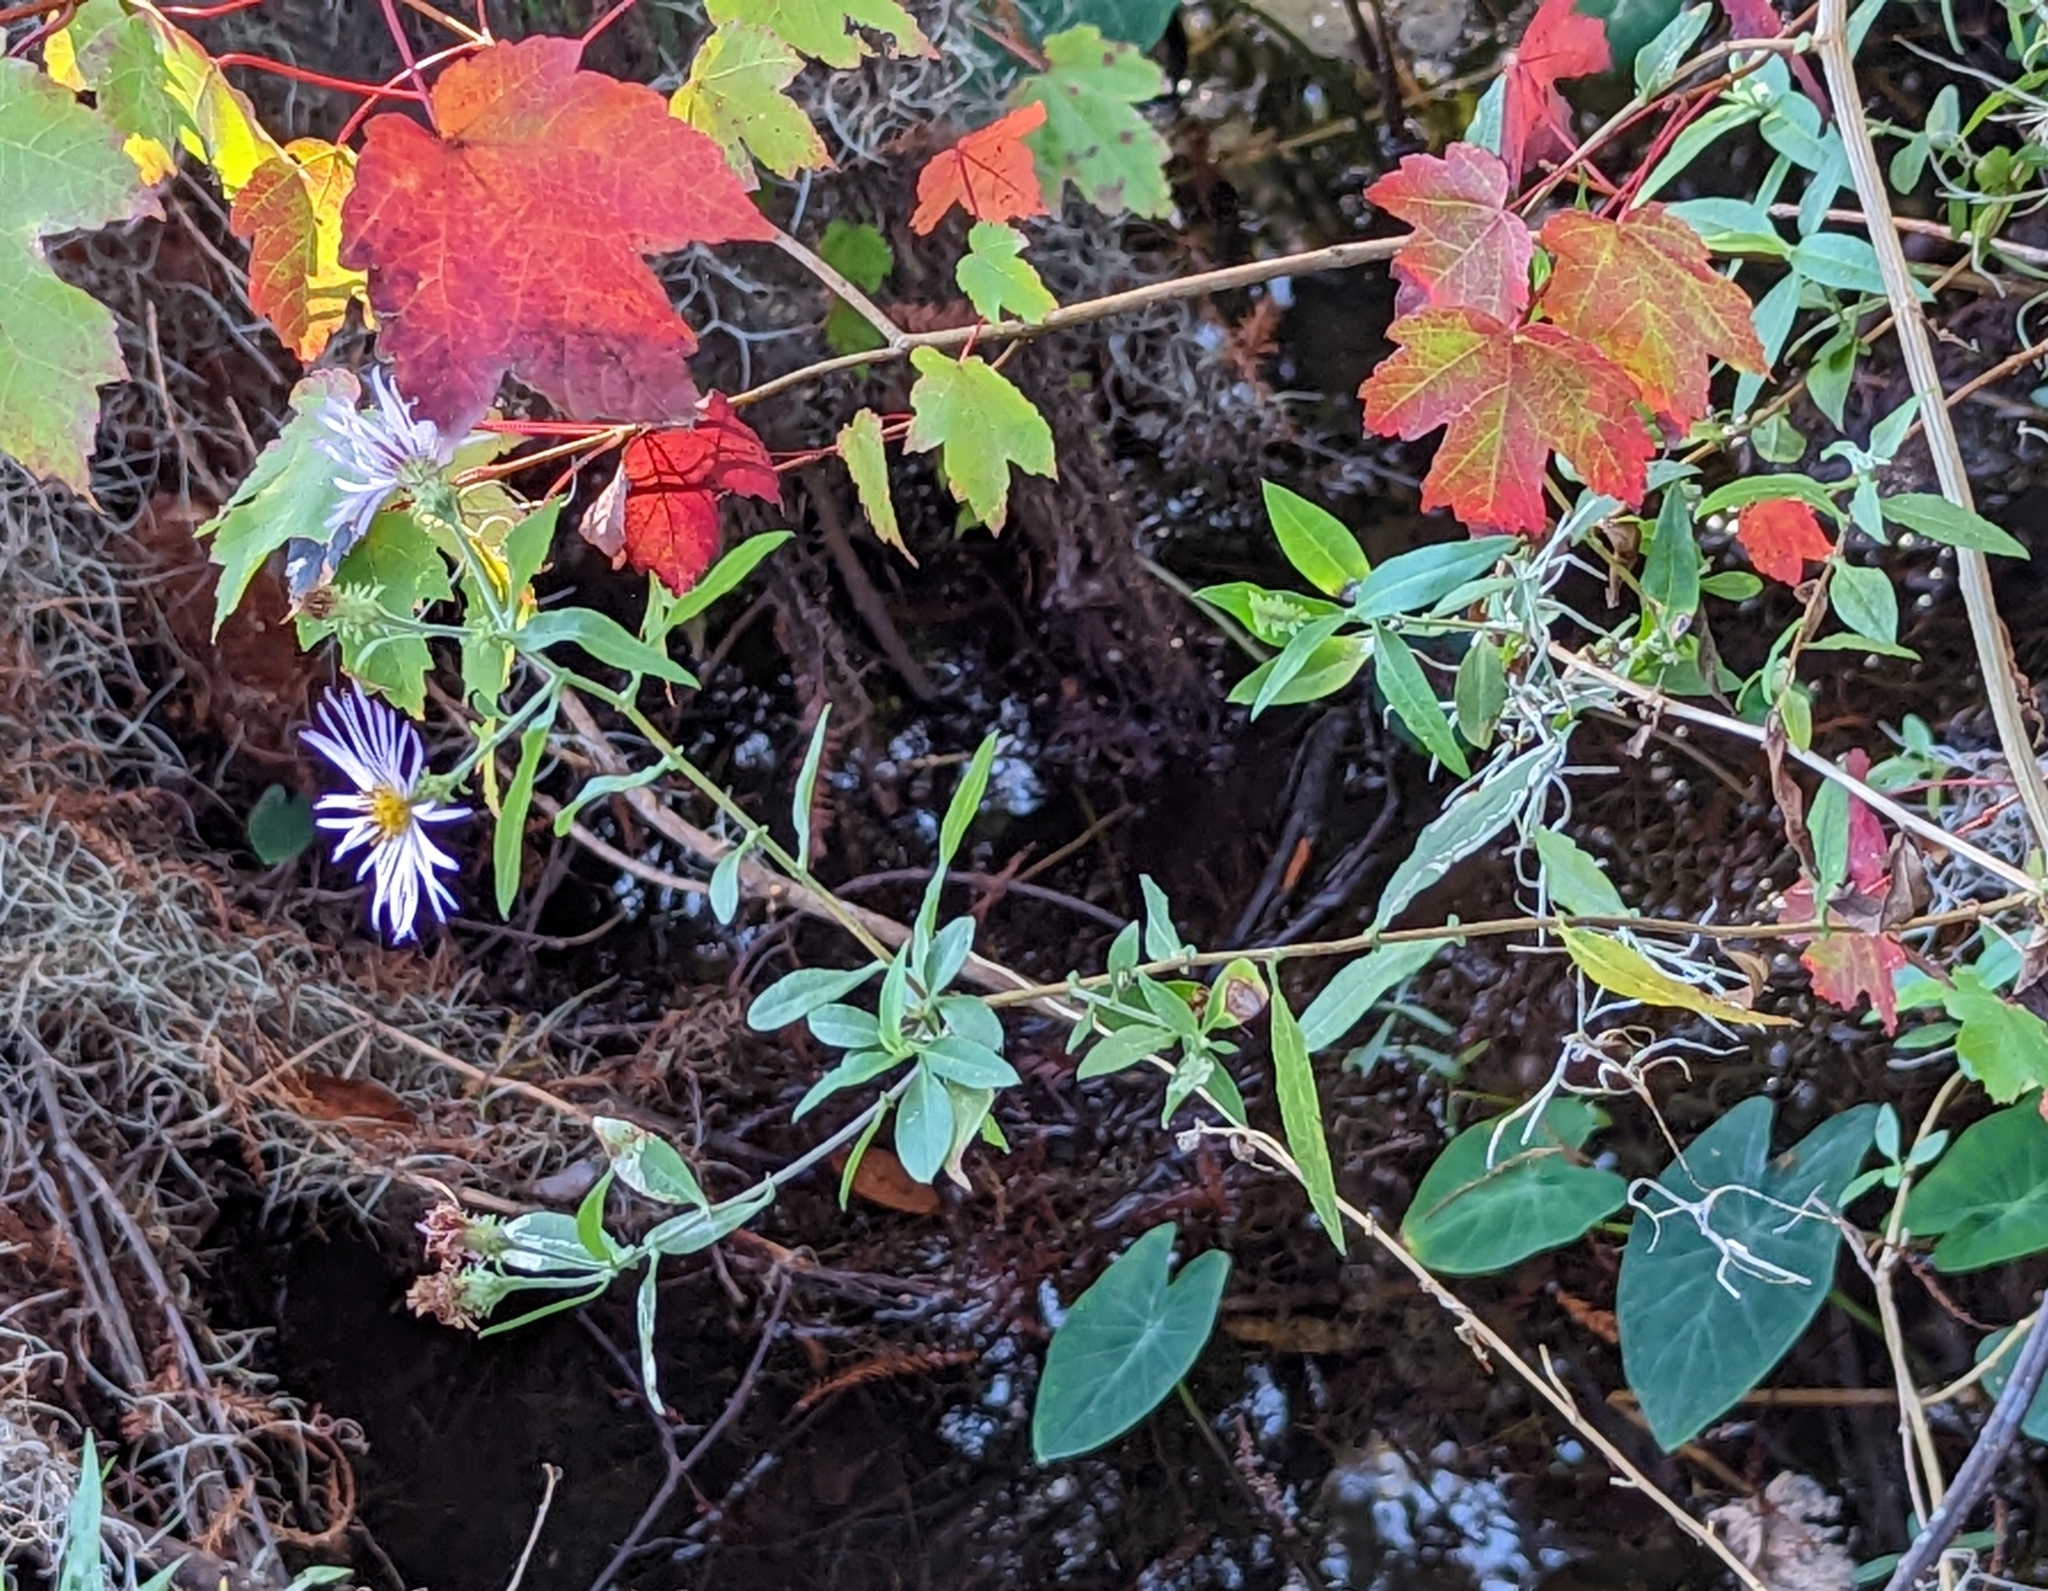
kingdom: Plantae
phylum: Tracheophyta
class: Magnoliopsida
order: Asterales
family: Asteraceae
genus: Ampelaster
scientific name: Ampelaster carolinianus
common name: Climbing aster
